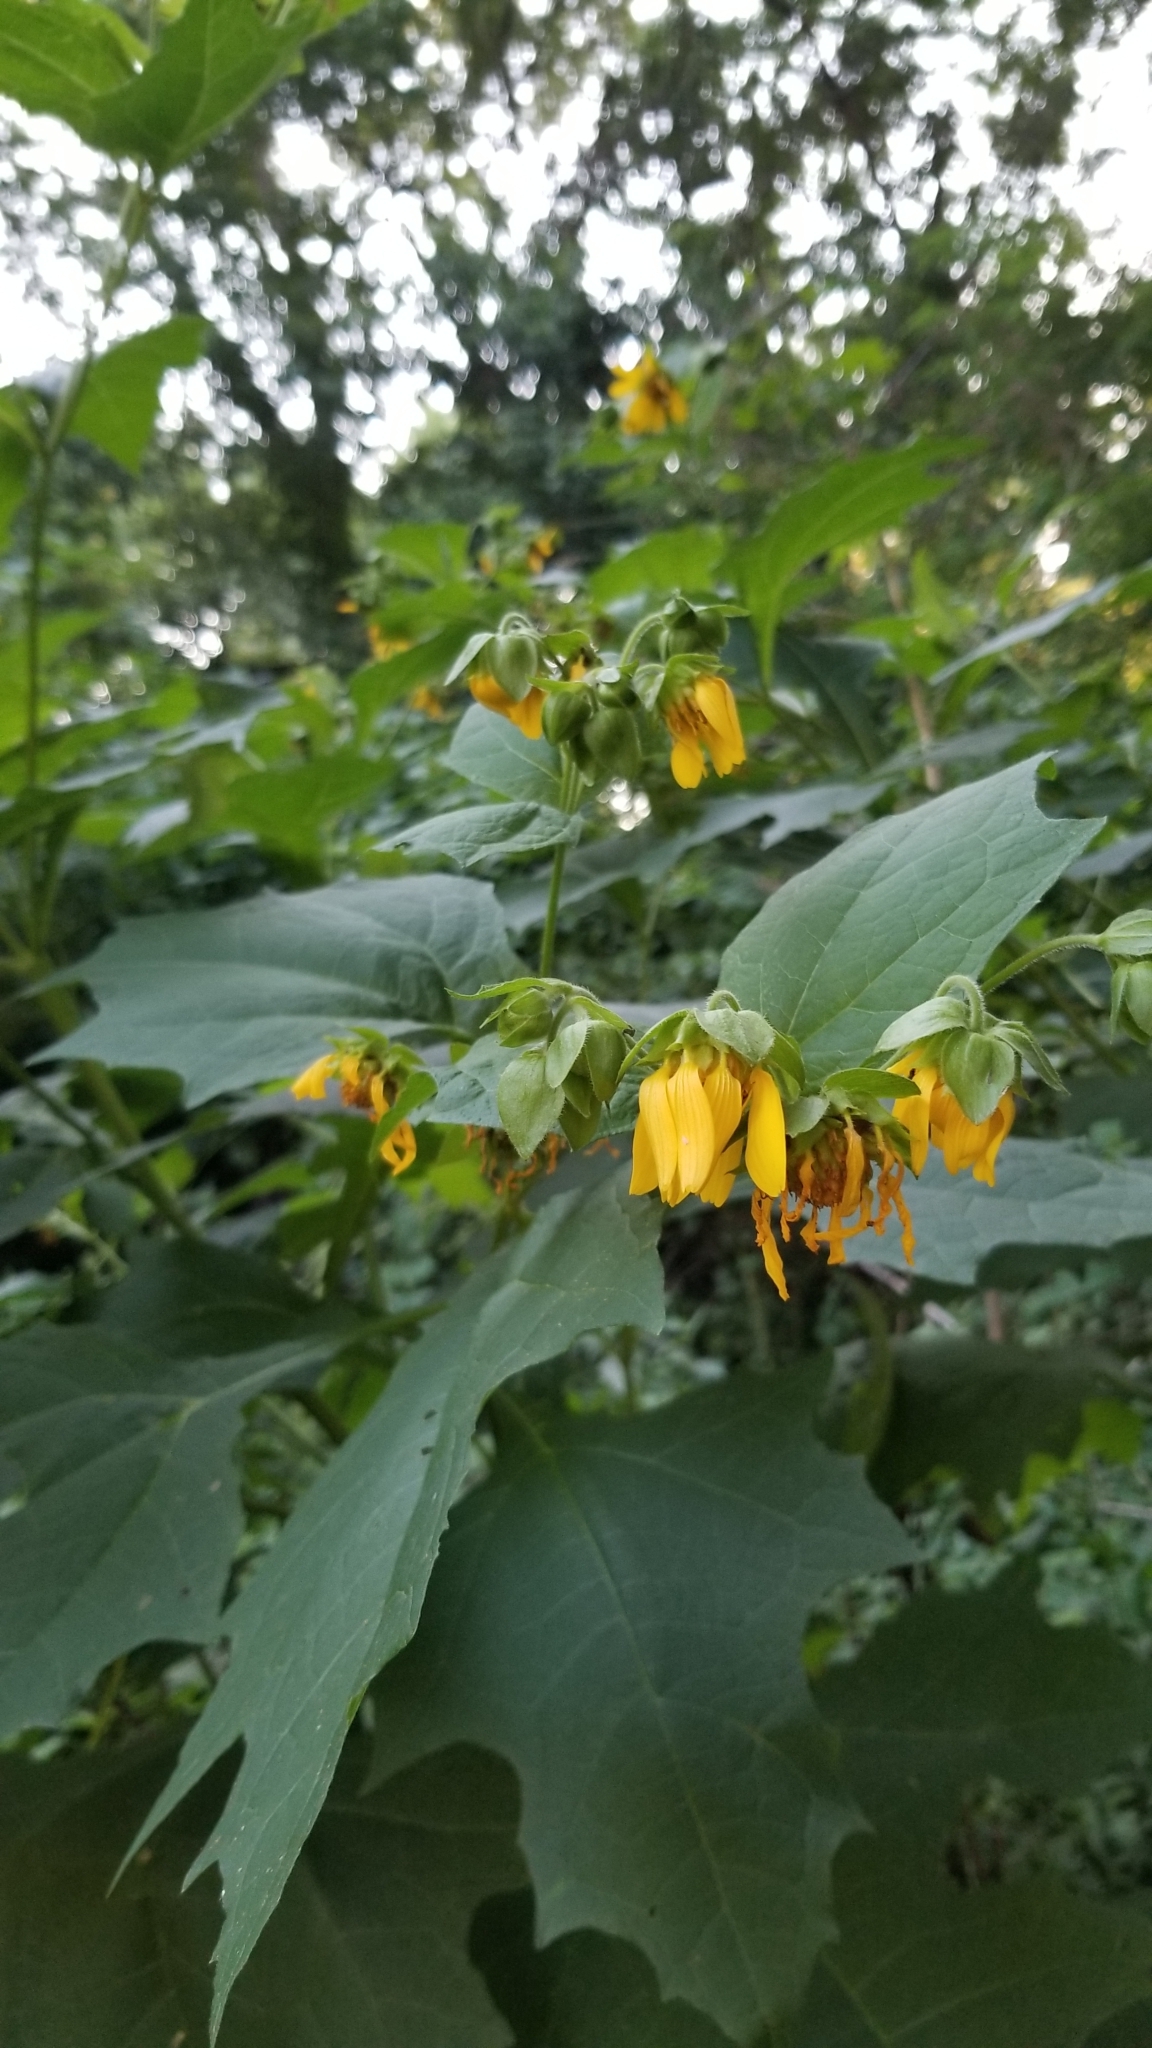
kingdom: Plantae
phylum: Tracheophyta
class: Magnoliopsida
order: Asterales
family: Asteraceae
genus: Smallanthus
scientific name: Smallanthus uvedalia
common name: Bear's-foot
